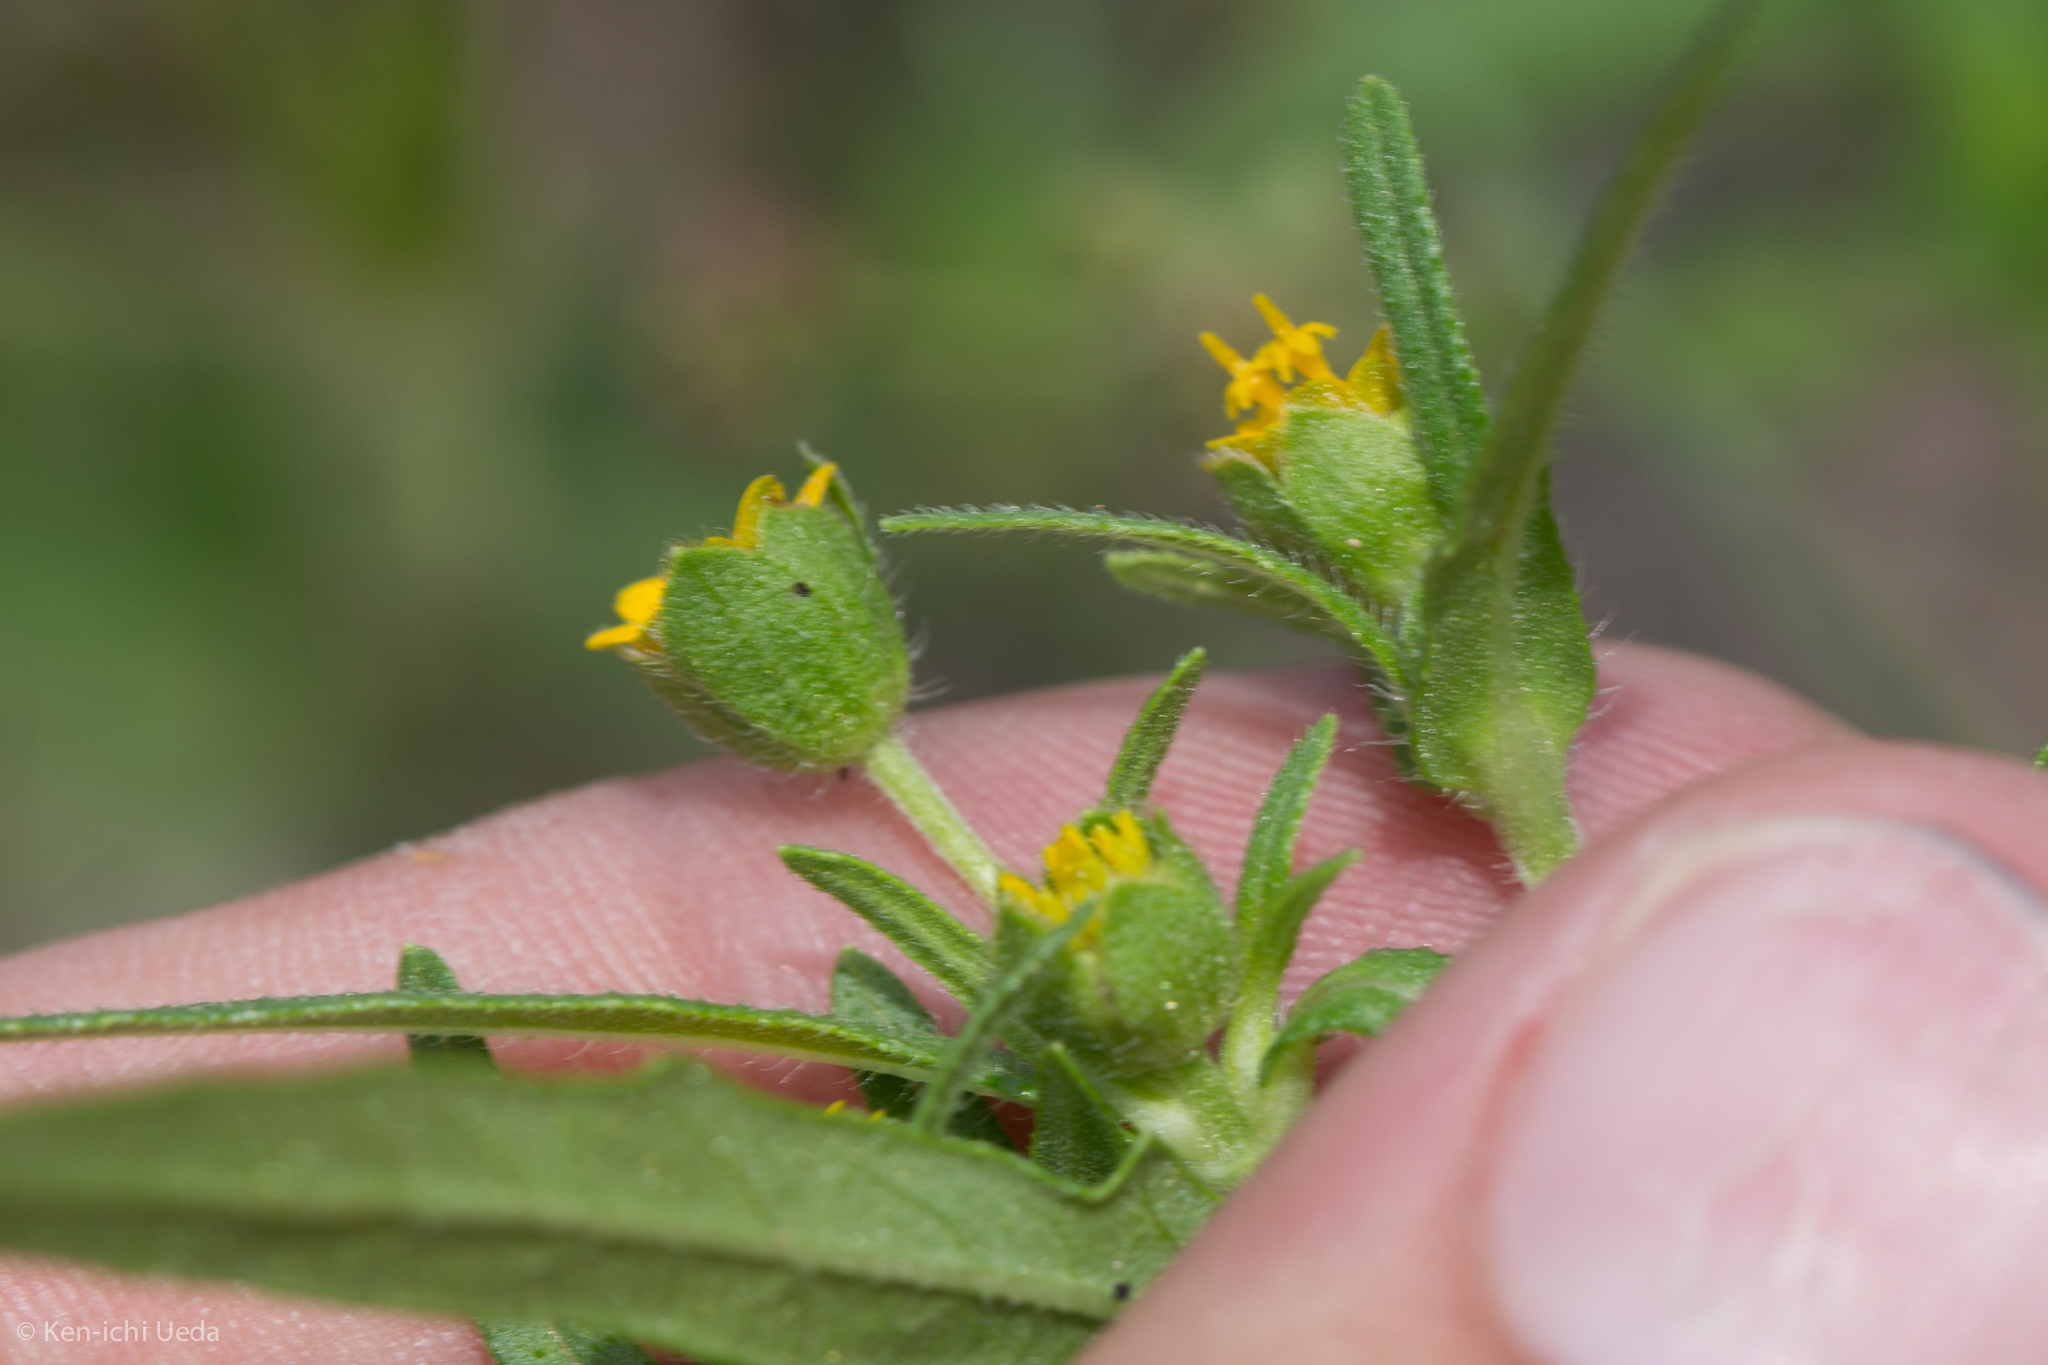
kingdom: Plantae
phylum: Tracheophyta
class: Magnoliopsida
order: Asterales
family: Asteraceae
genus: Melampodium
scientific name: Melampodium strigosum
